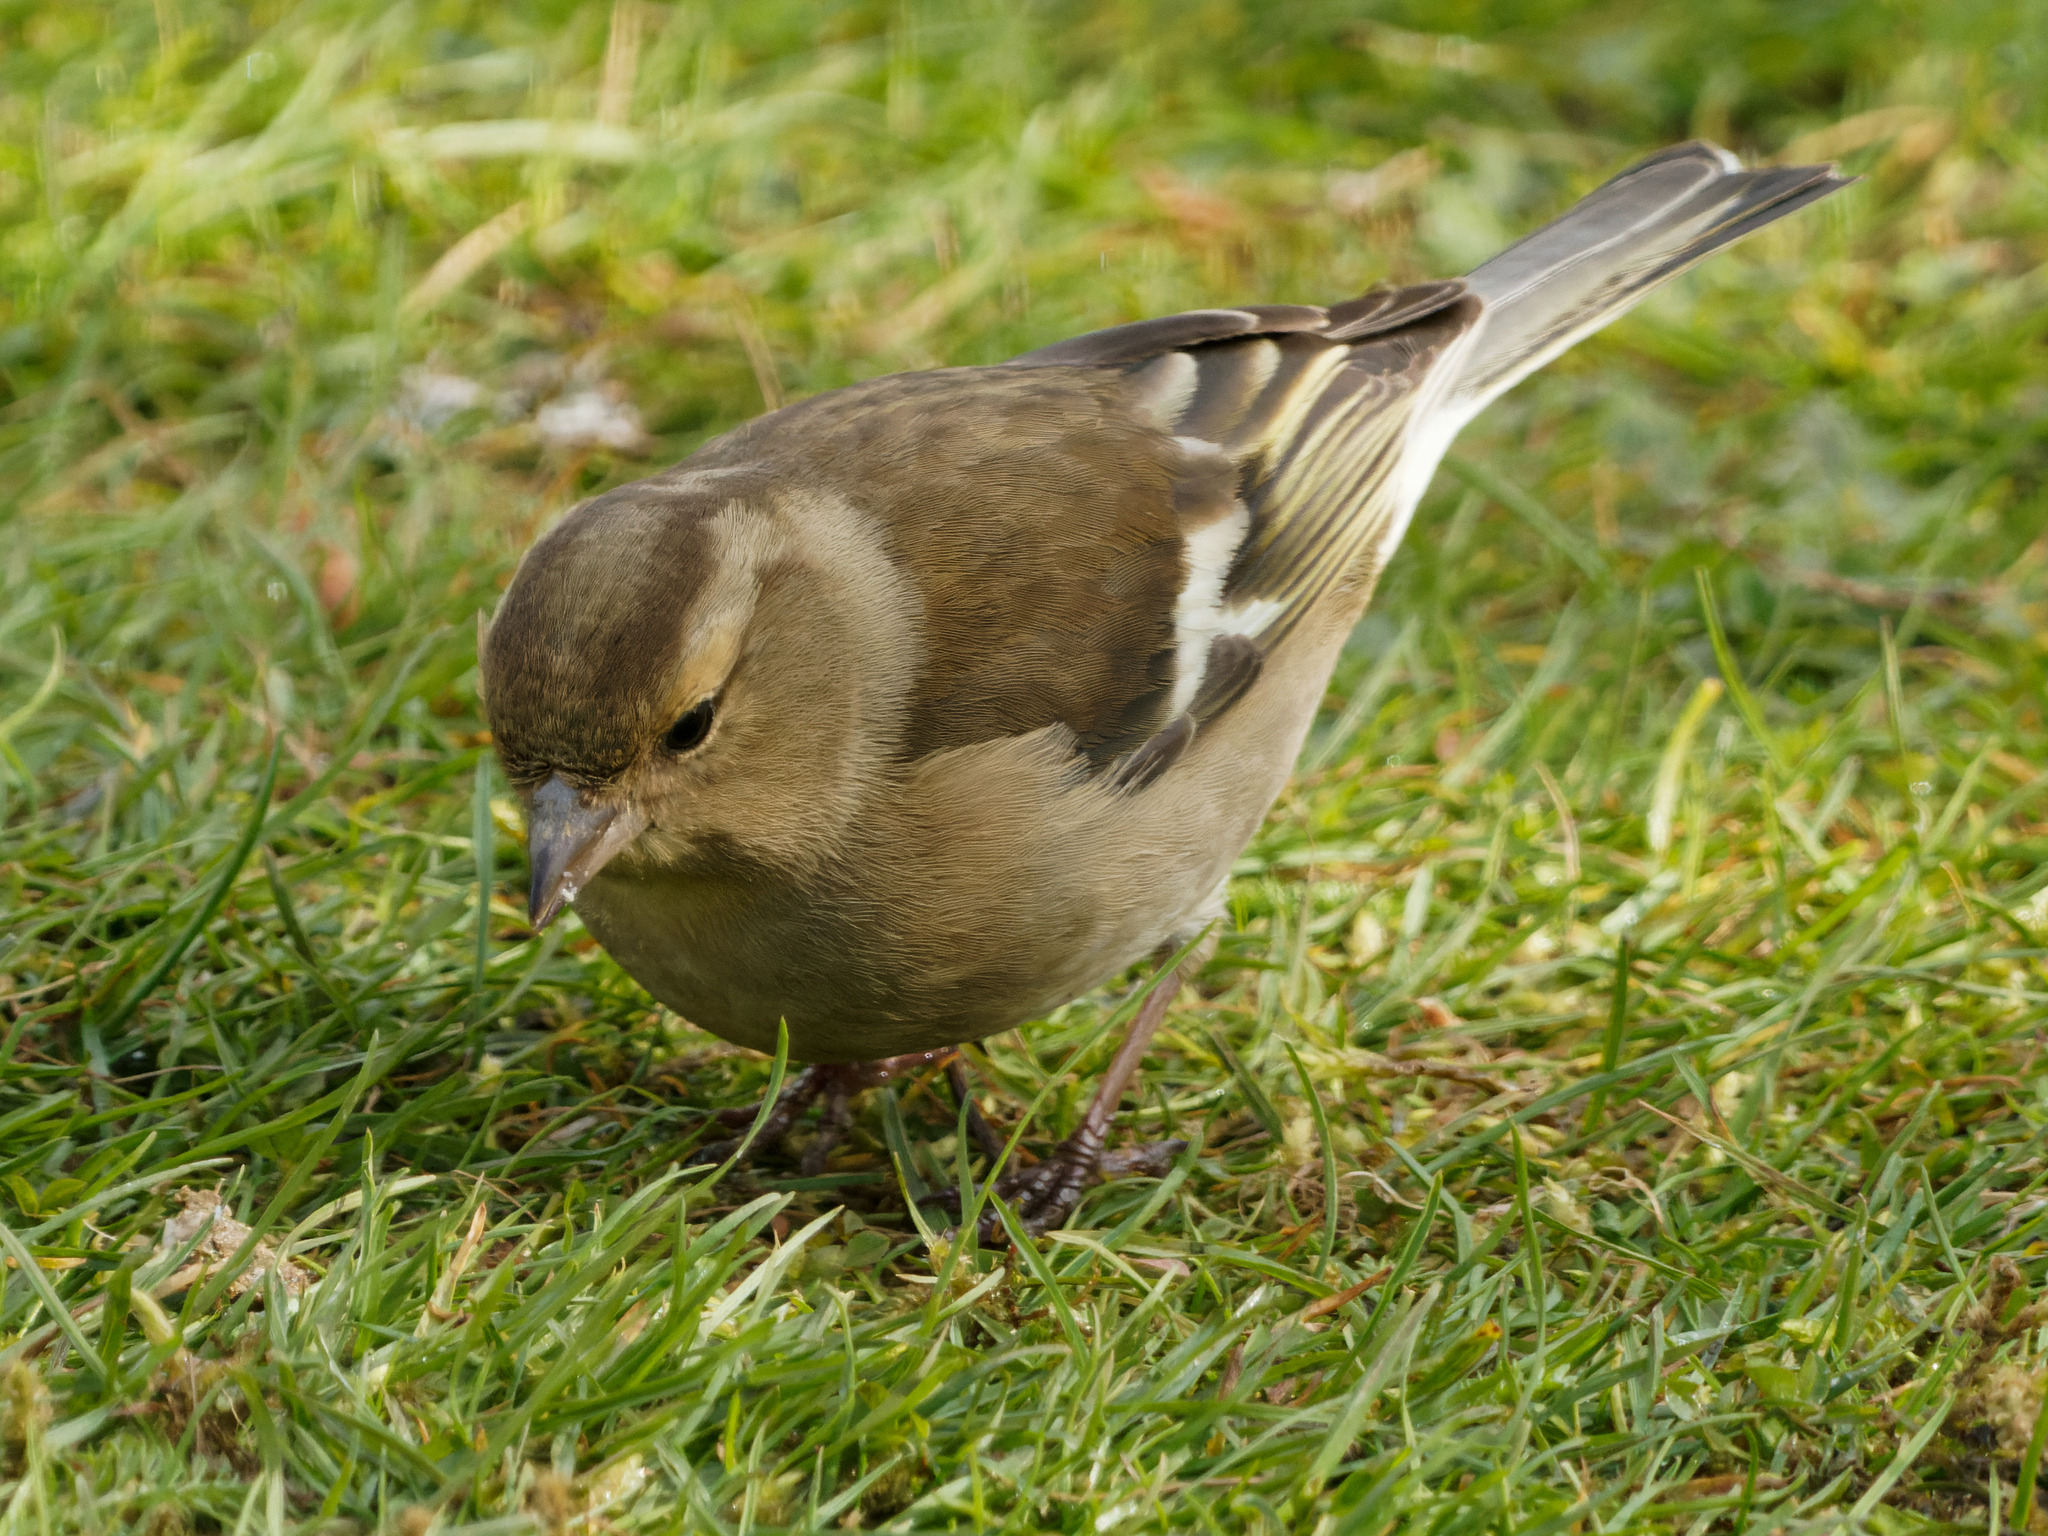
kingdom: Animalia
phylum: Chordata
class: Aves
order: Passeriformes
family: Fringillidae
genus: Fringilla
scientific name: Fringilla coelebs
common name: Common chaffinch
